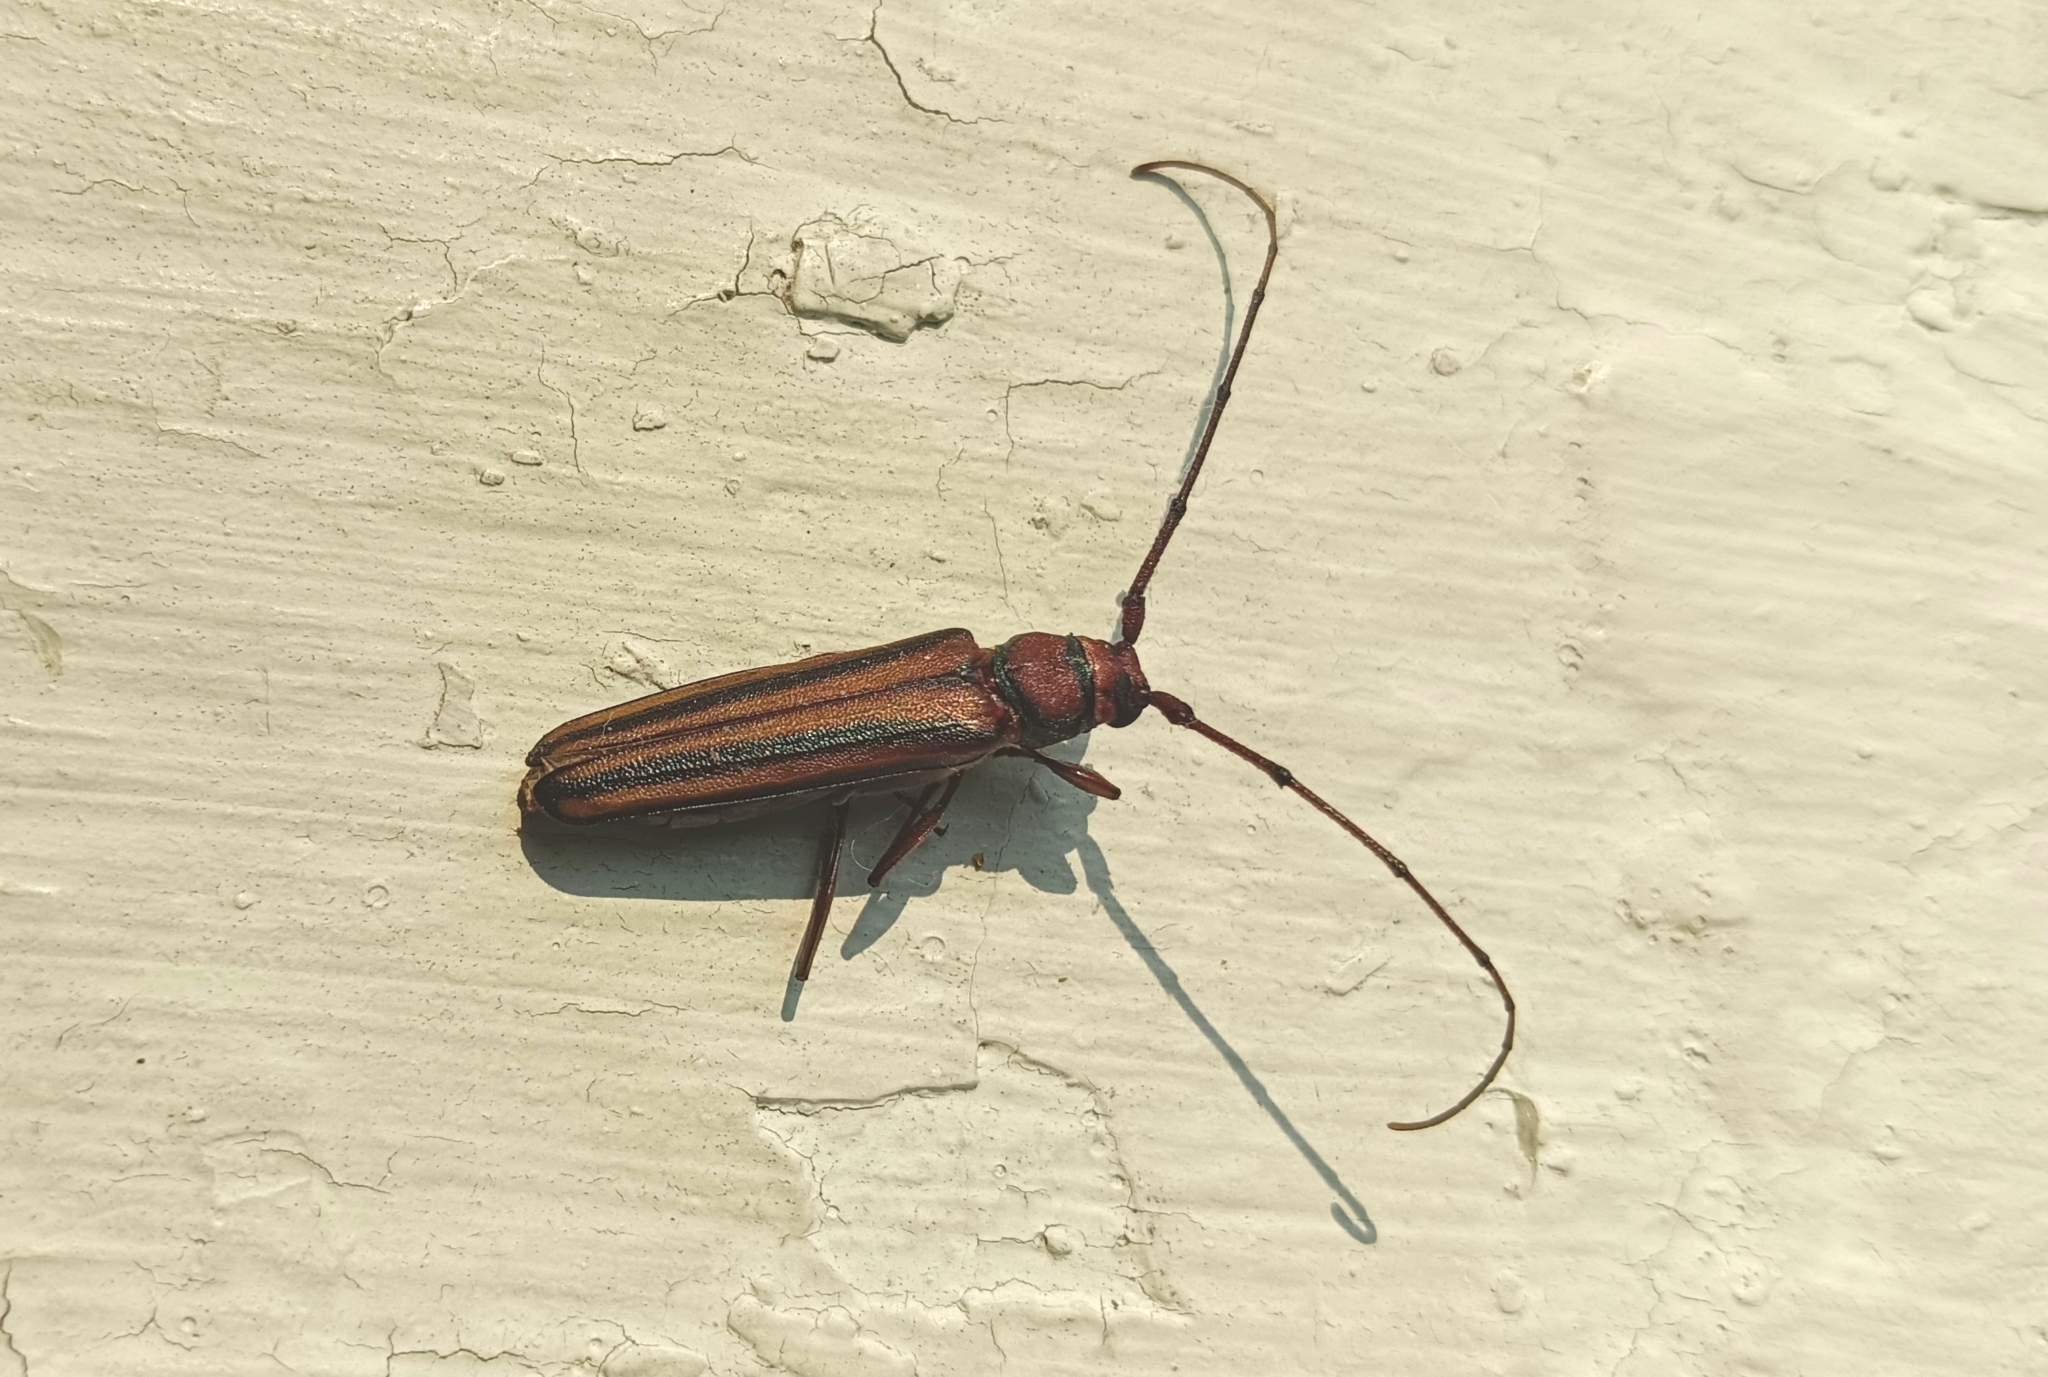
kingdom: Animalia
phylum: Arthropoda
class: Insecta
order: Coleoptera
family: Cerambycidae
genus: Xystrocera
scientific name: Xystrocera globosa
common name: Peach-tree longhorn
